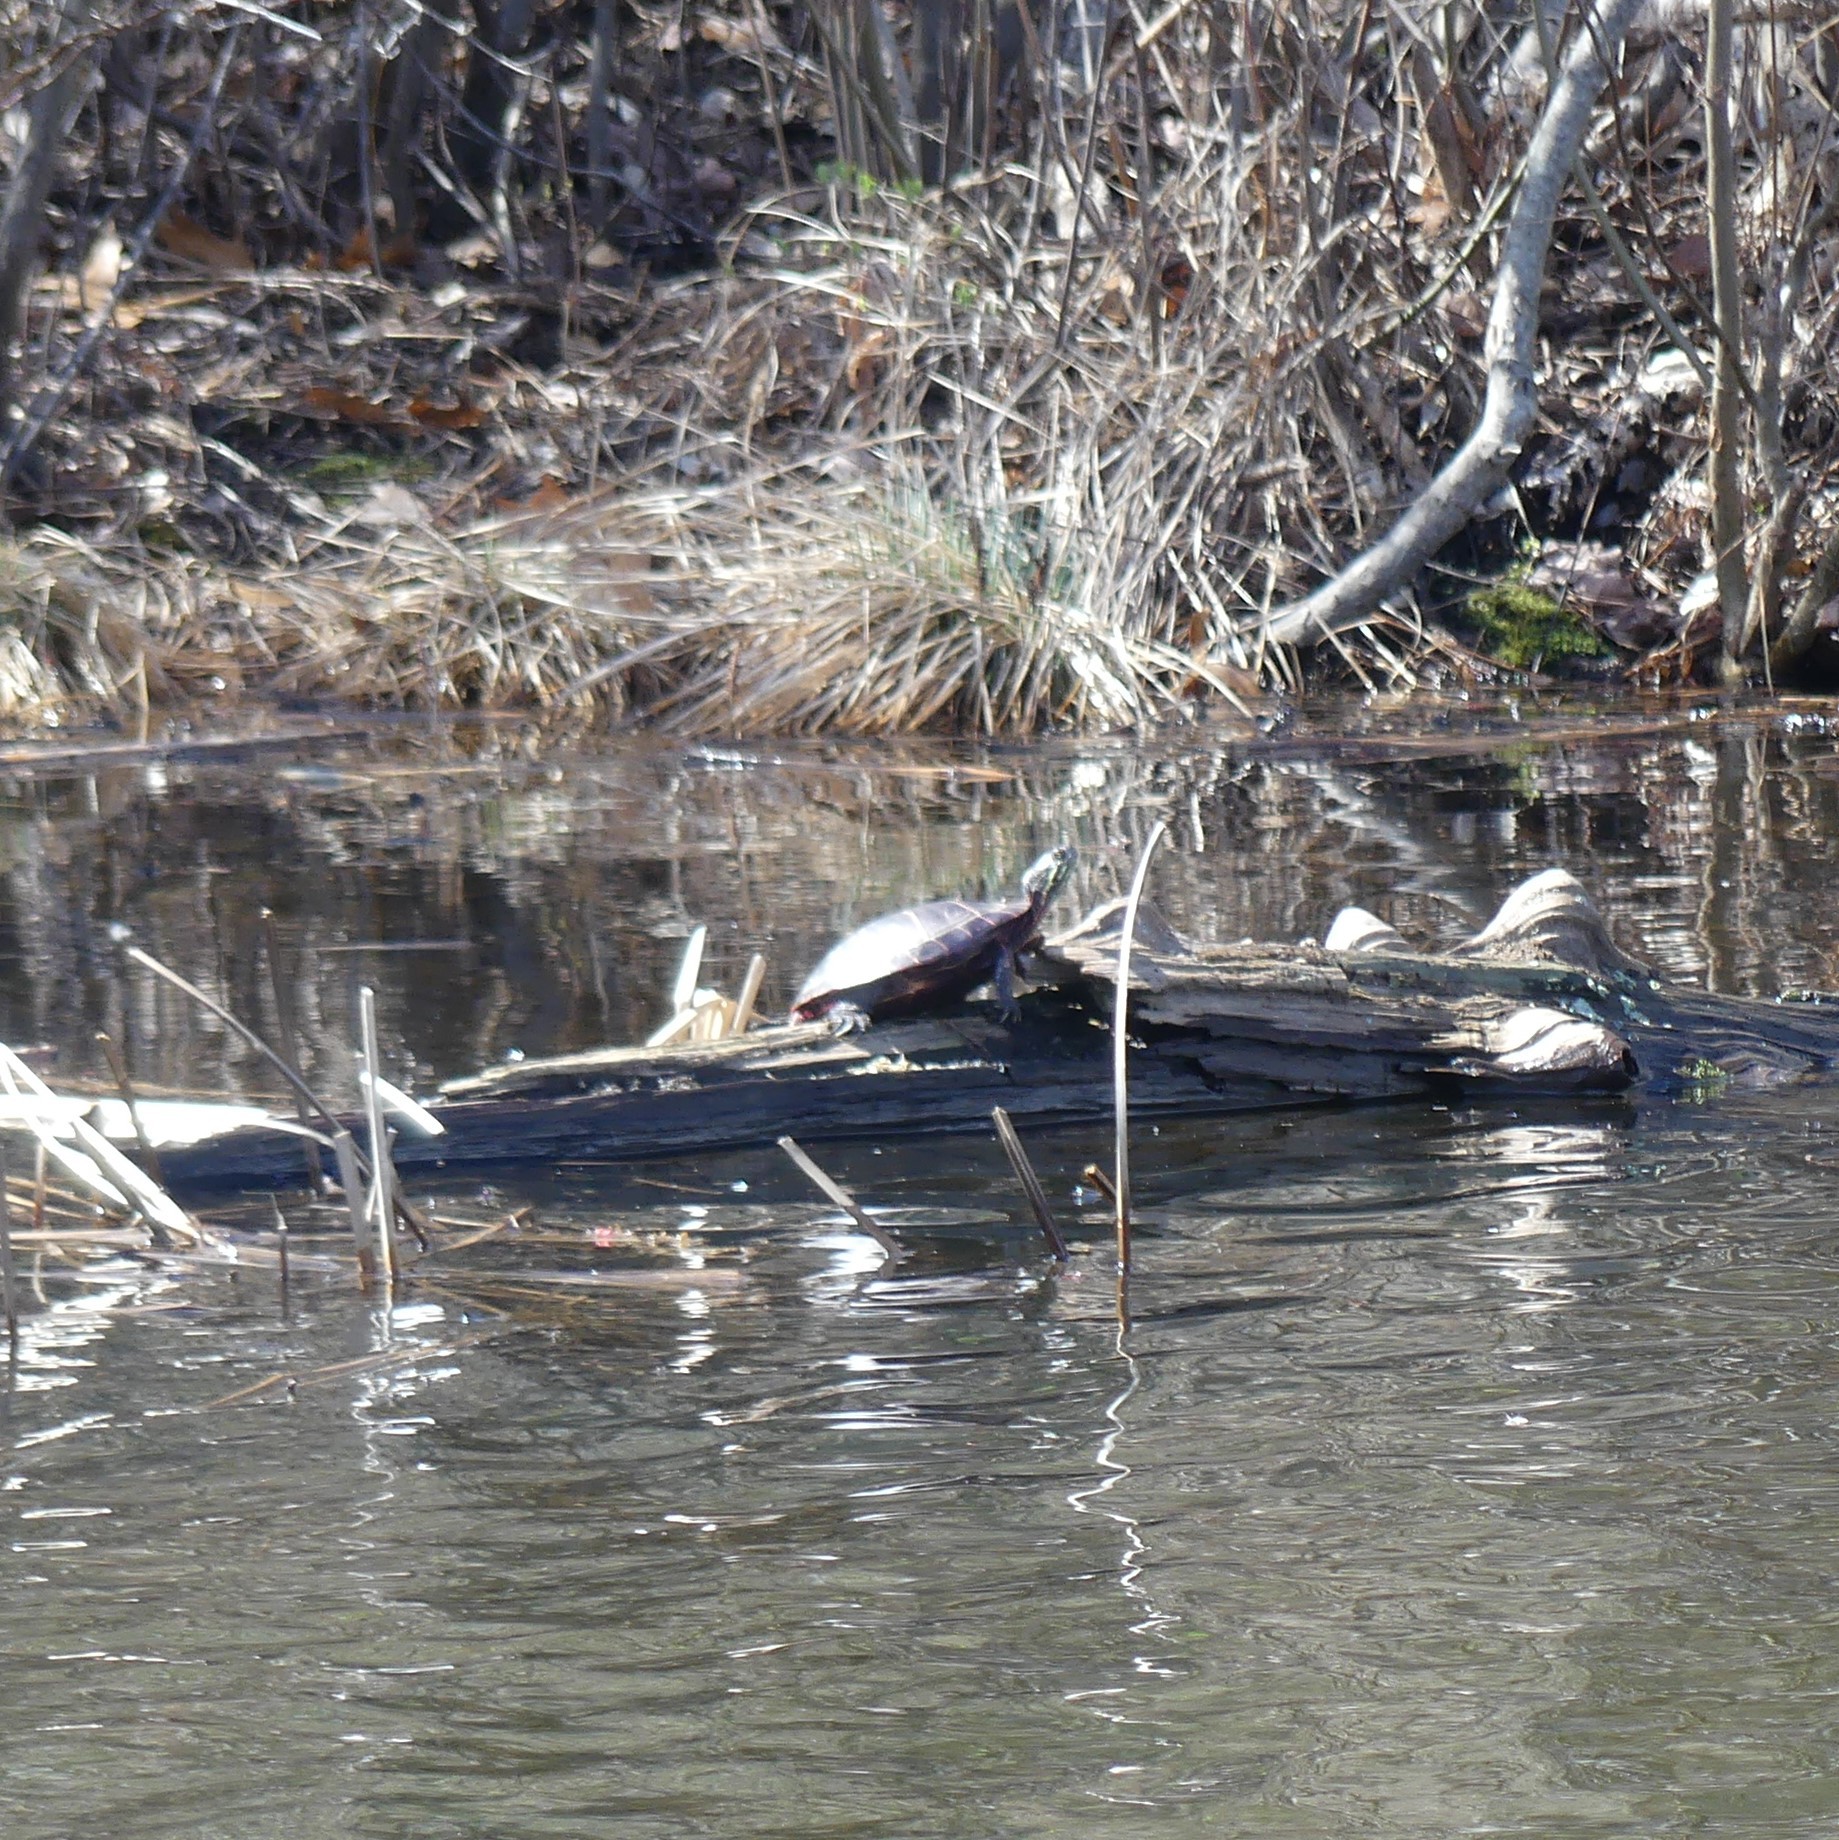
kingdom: Animalia
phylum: Chordata
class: Testudines
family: Emydidae
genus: Chrysemys
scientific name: Chrysemys picta
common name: Painted turtle
